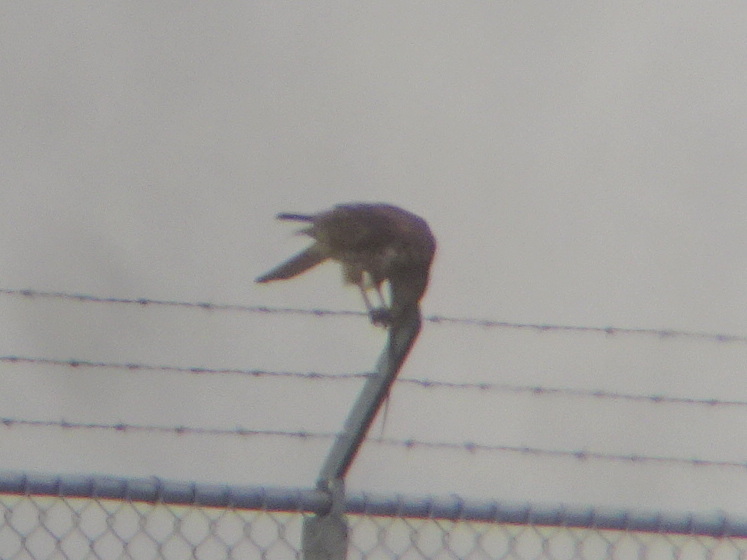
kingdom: Animalia
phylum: Chordata
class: Aves
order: Accipitriformes
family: Accipitridae
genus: Buteo
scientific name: Buteo lineatus
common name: Red-shouldered hawk
